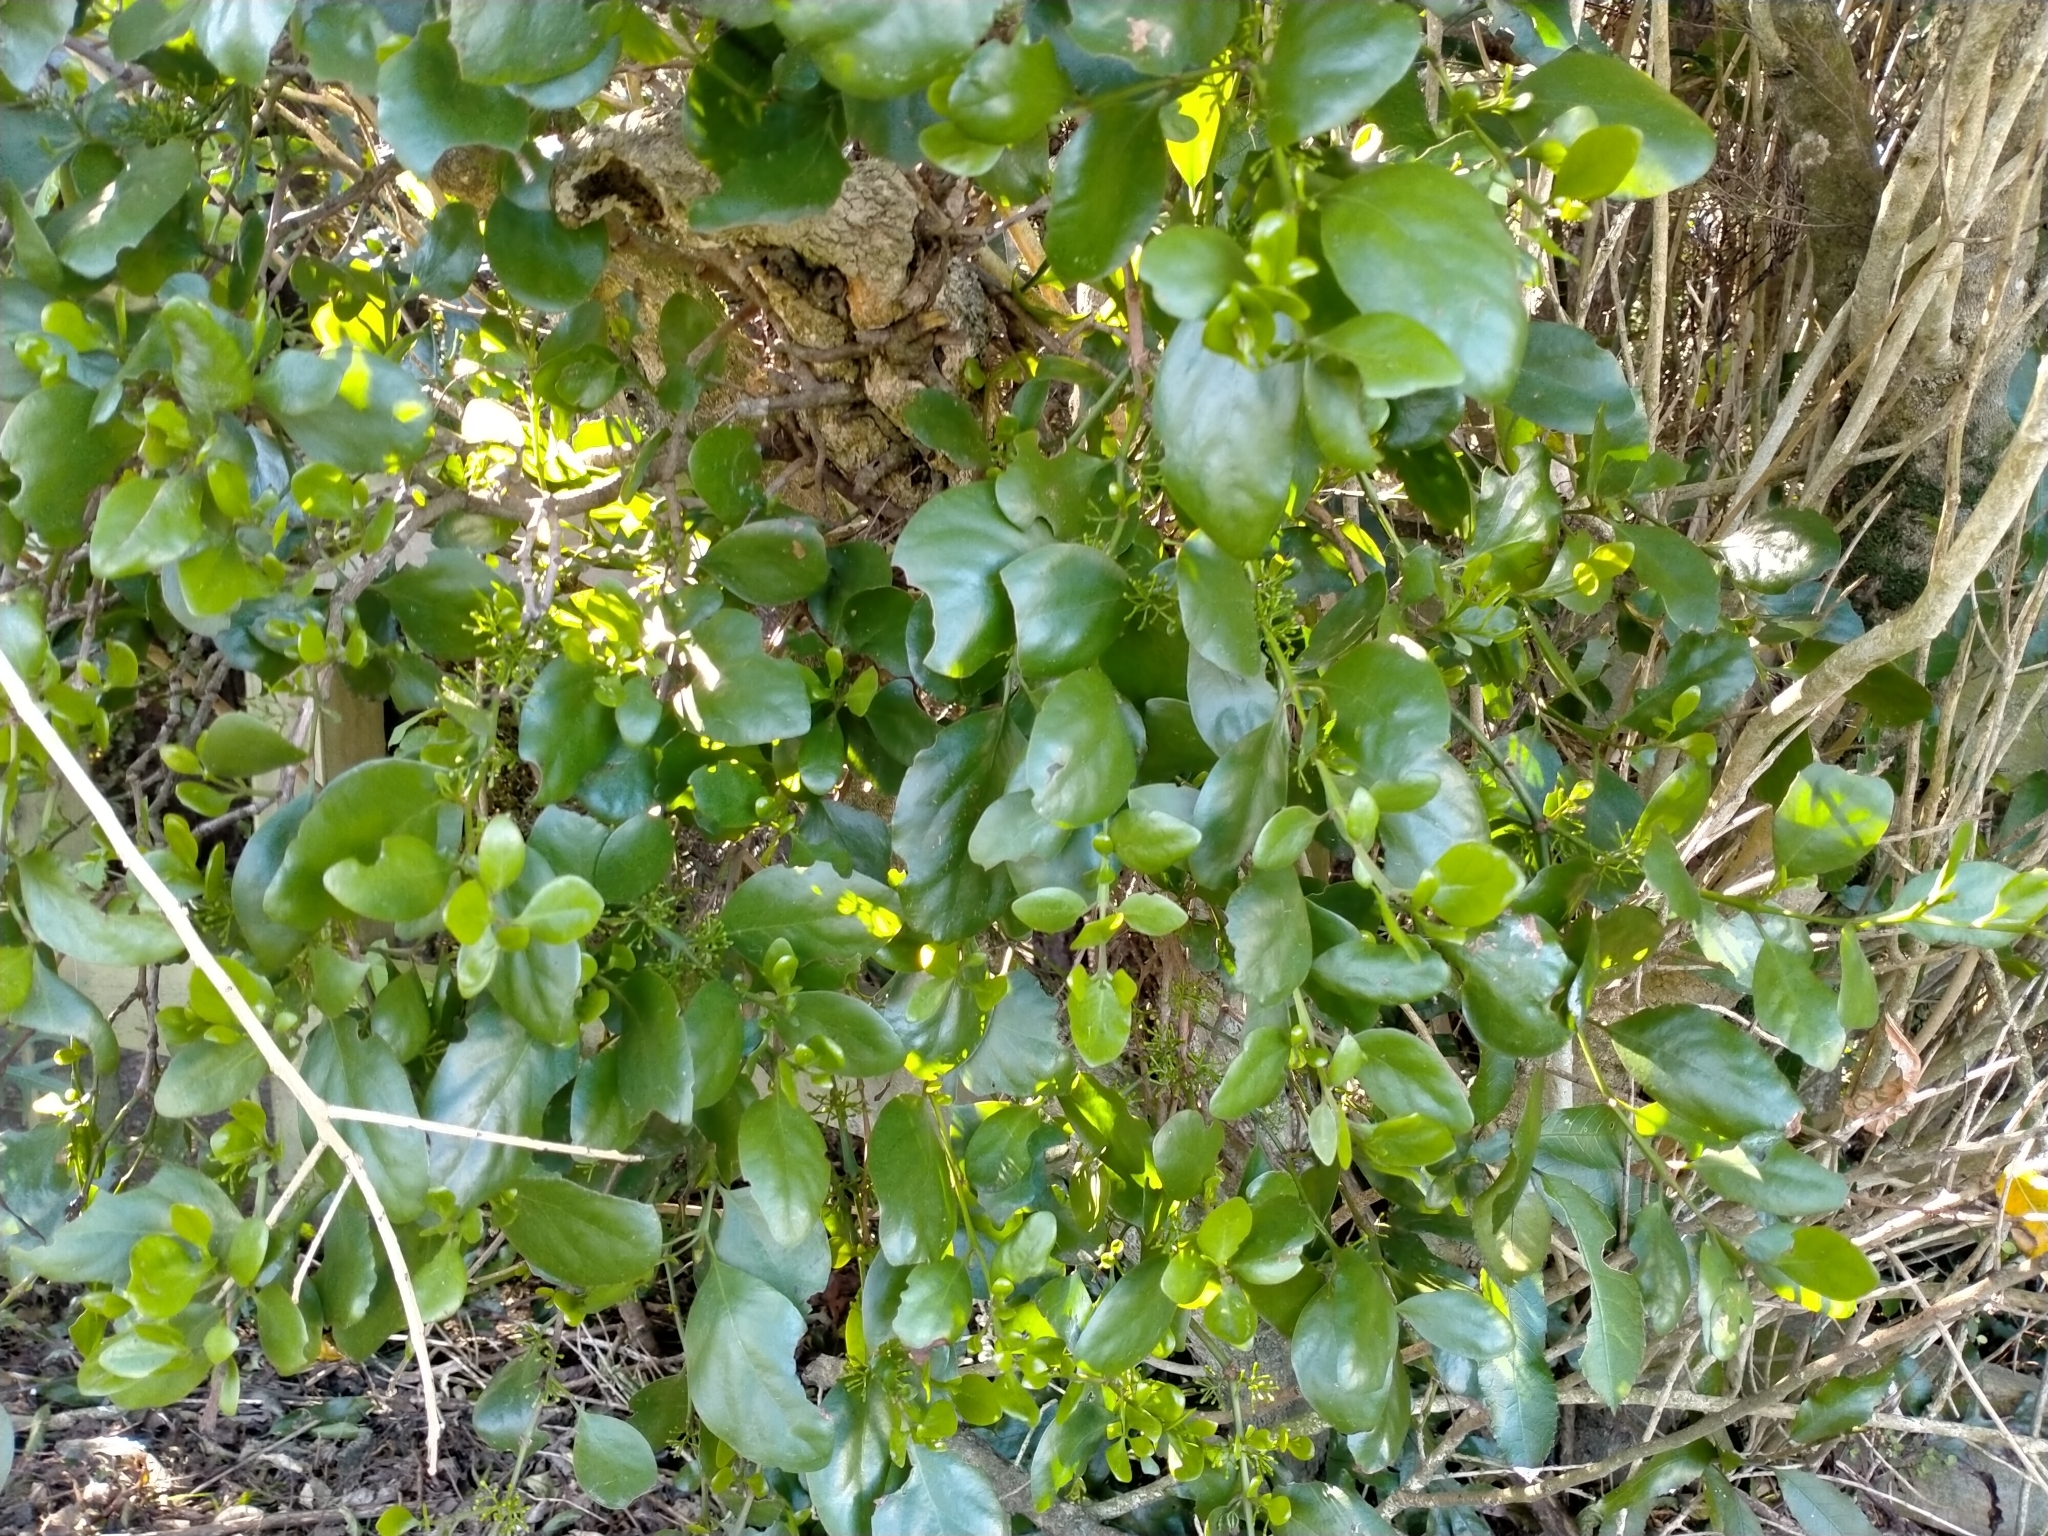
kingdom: Plantae
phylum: Tracheophyta
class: Magnoliopsida
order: Santalales
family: Loranthaceae
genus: Ileostylus
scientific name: Ileostylus micranthus
